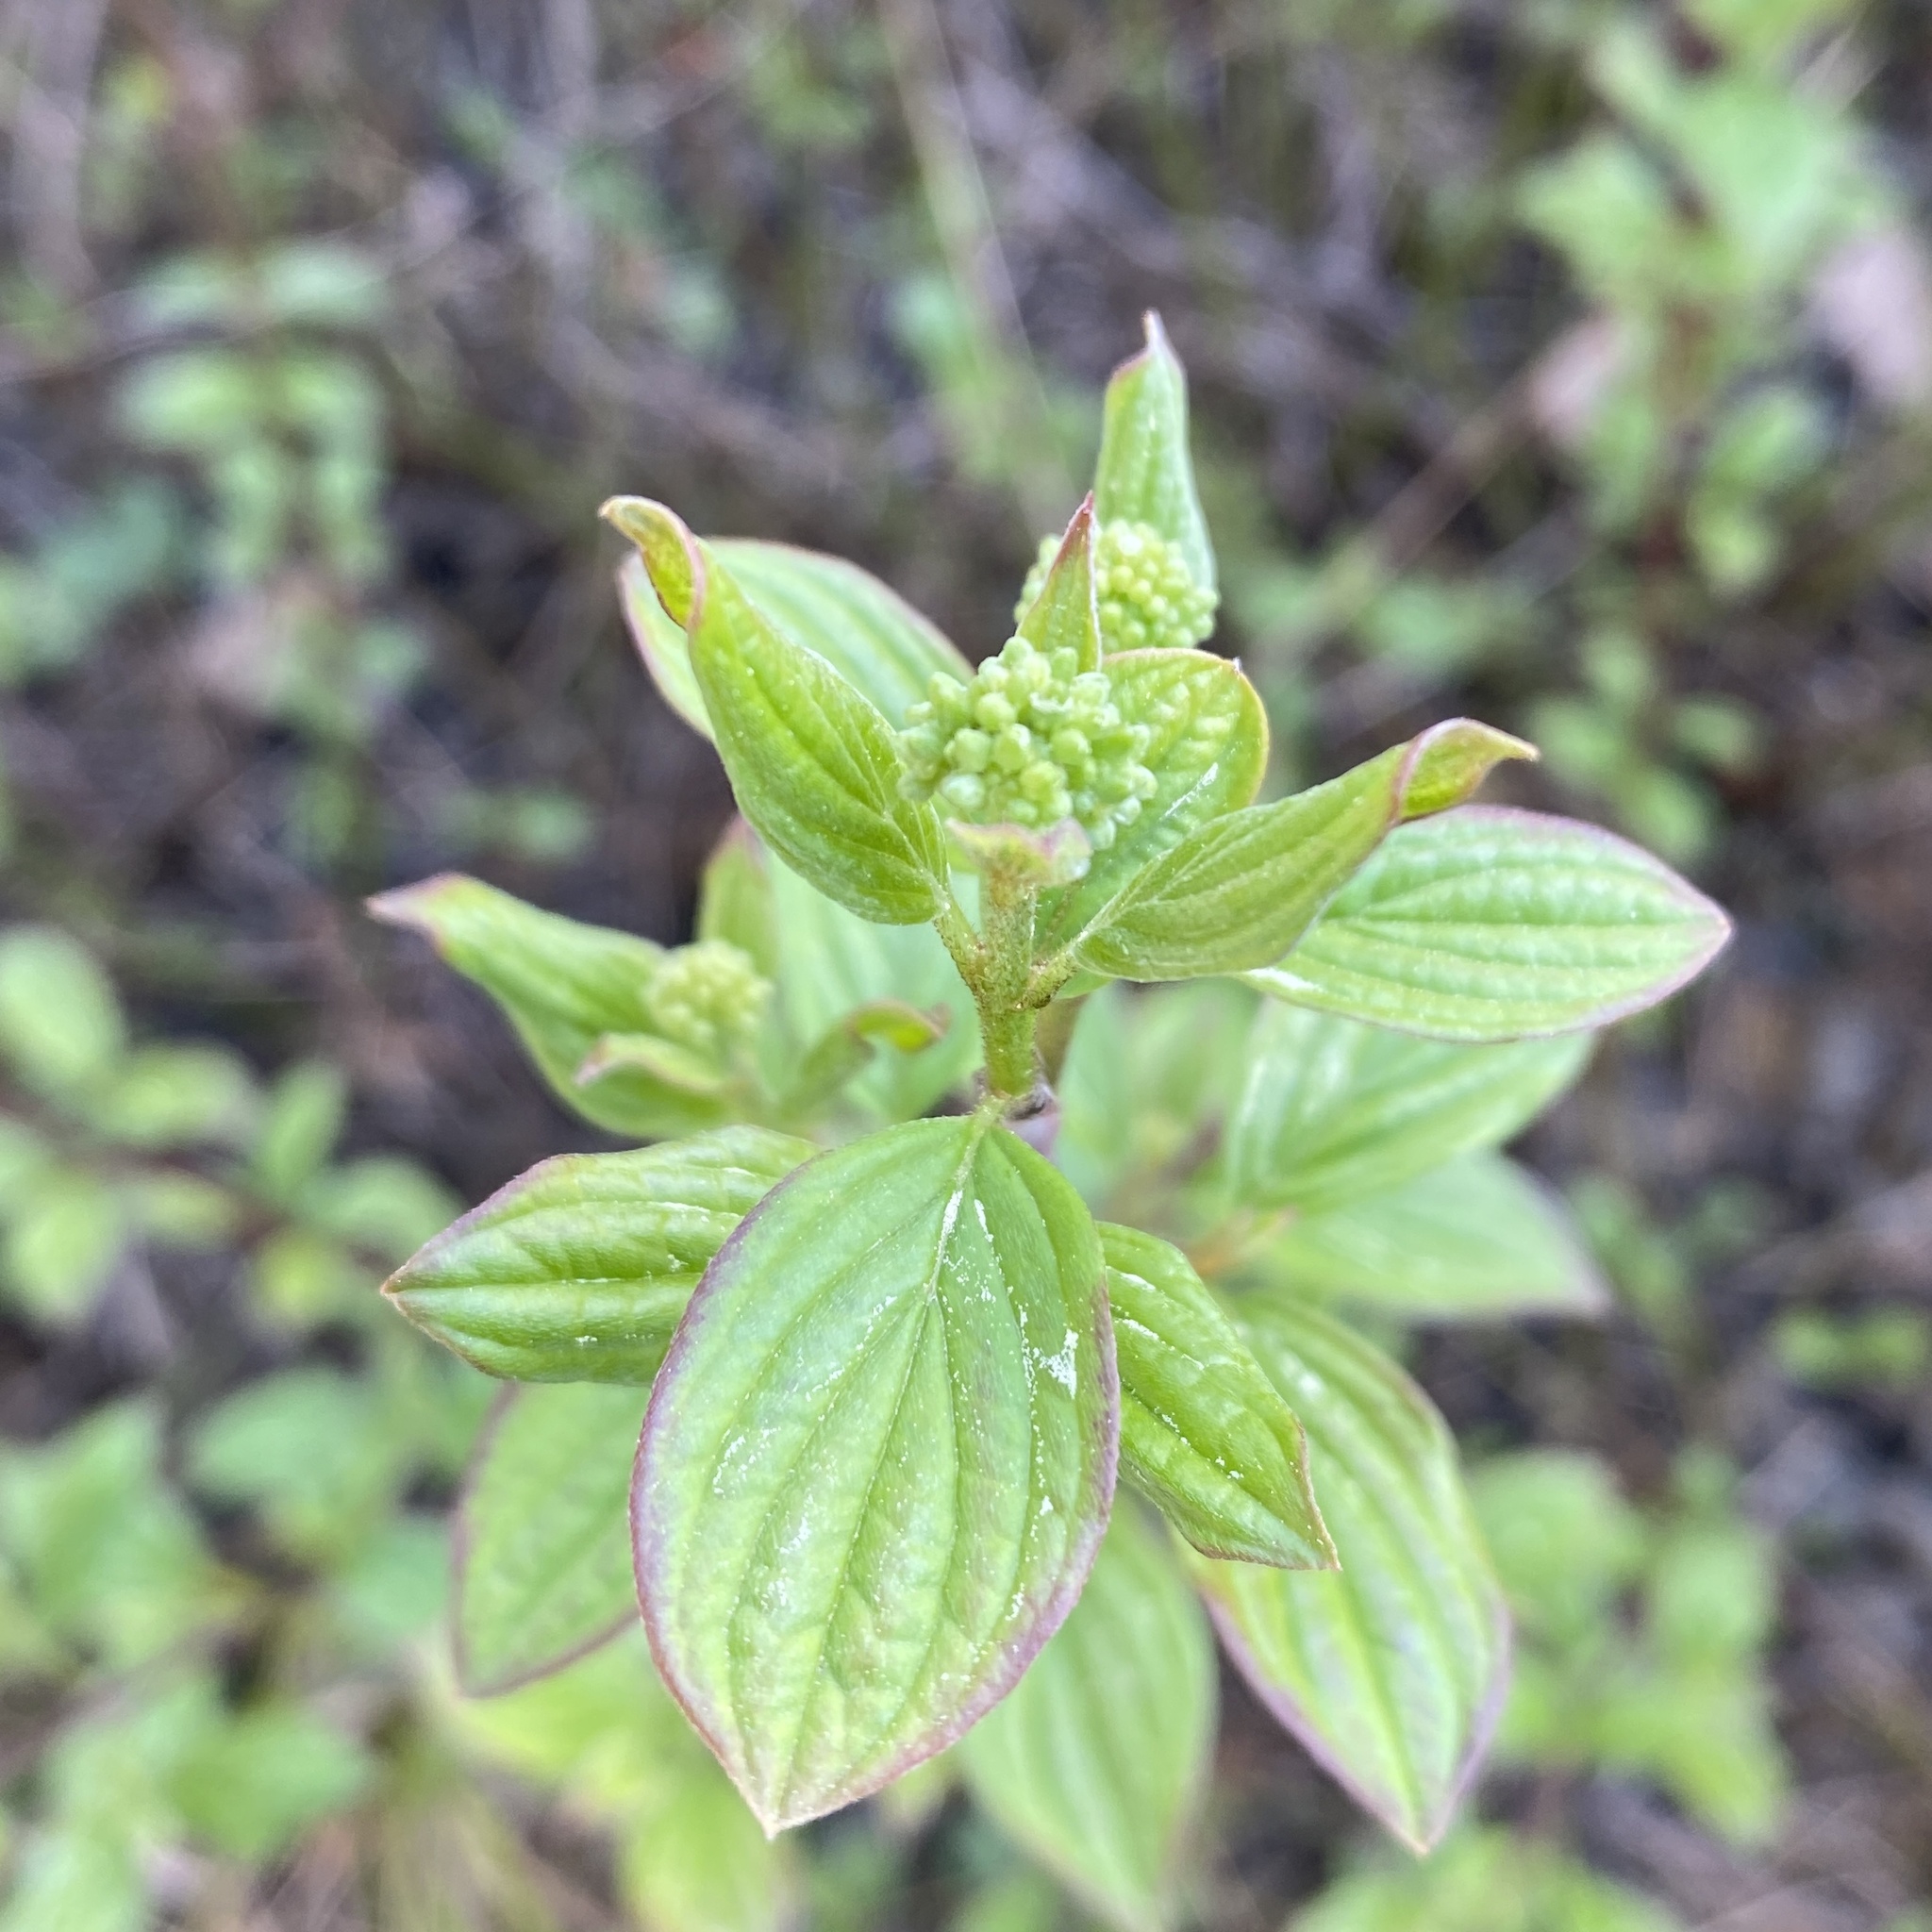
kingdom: Plantae
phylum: Tracheophyta
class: Magnoliopsida
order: Cornales
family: Cornaceae
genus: Cornus
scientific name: Cornus sanguinea
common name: Dogwood
